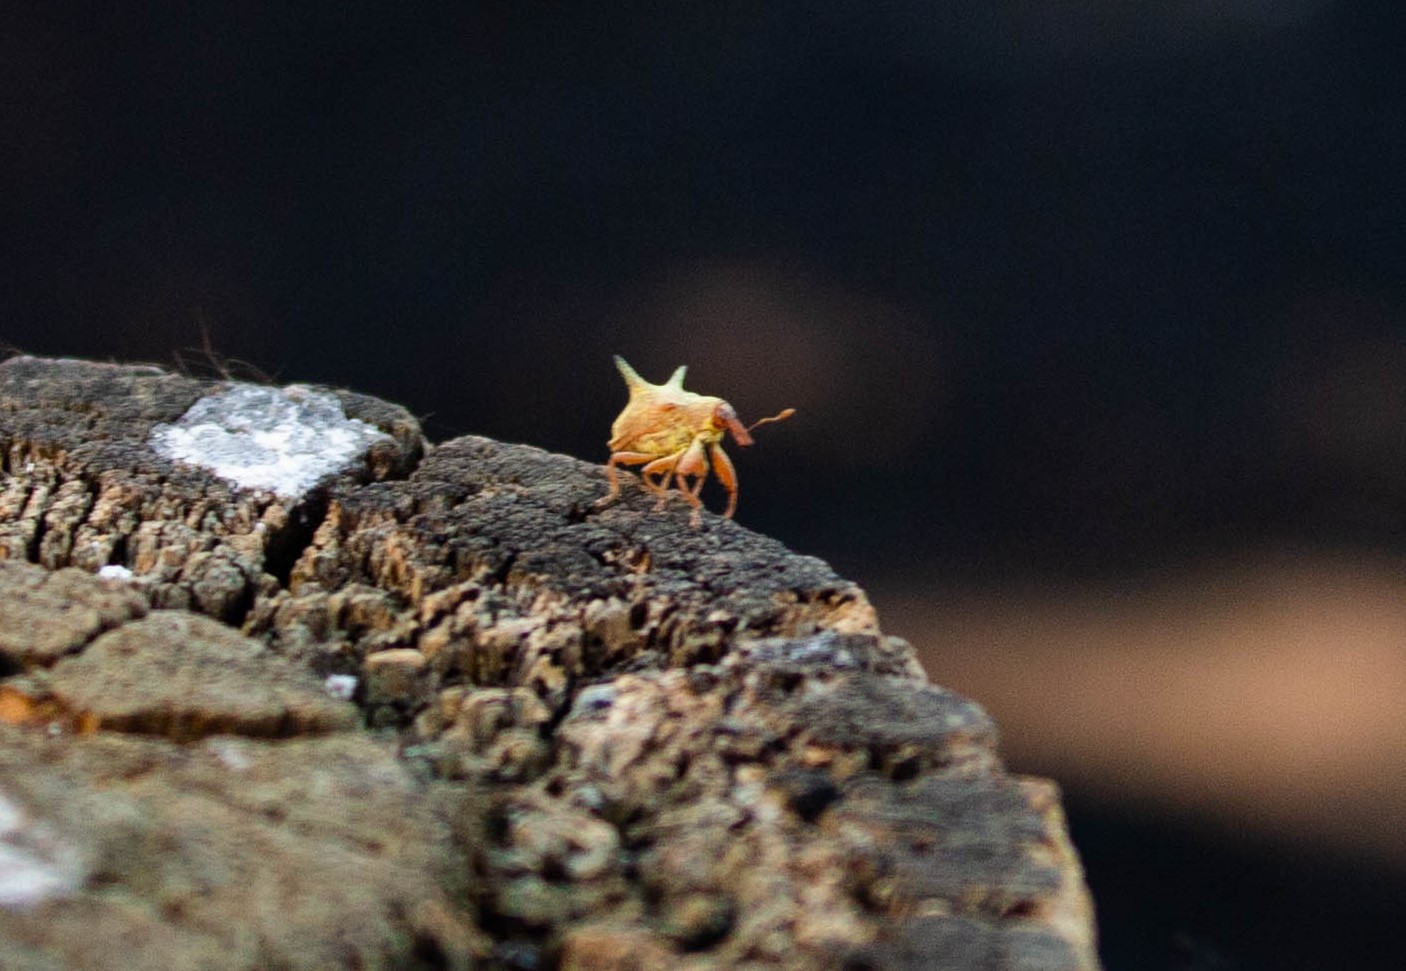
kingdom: Animalia
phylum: Arthropoda
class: Insecta
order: Coleoptera
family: Curculionidae
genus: Odontopus
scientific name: Odontopus
